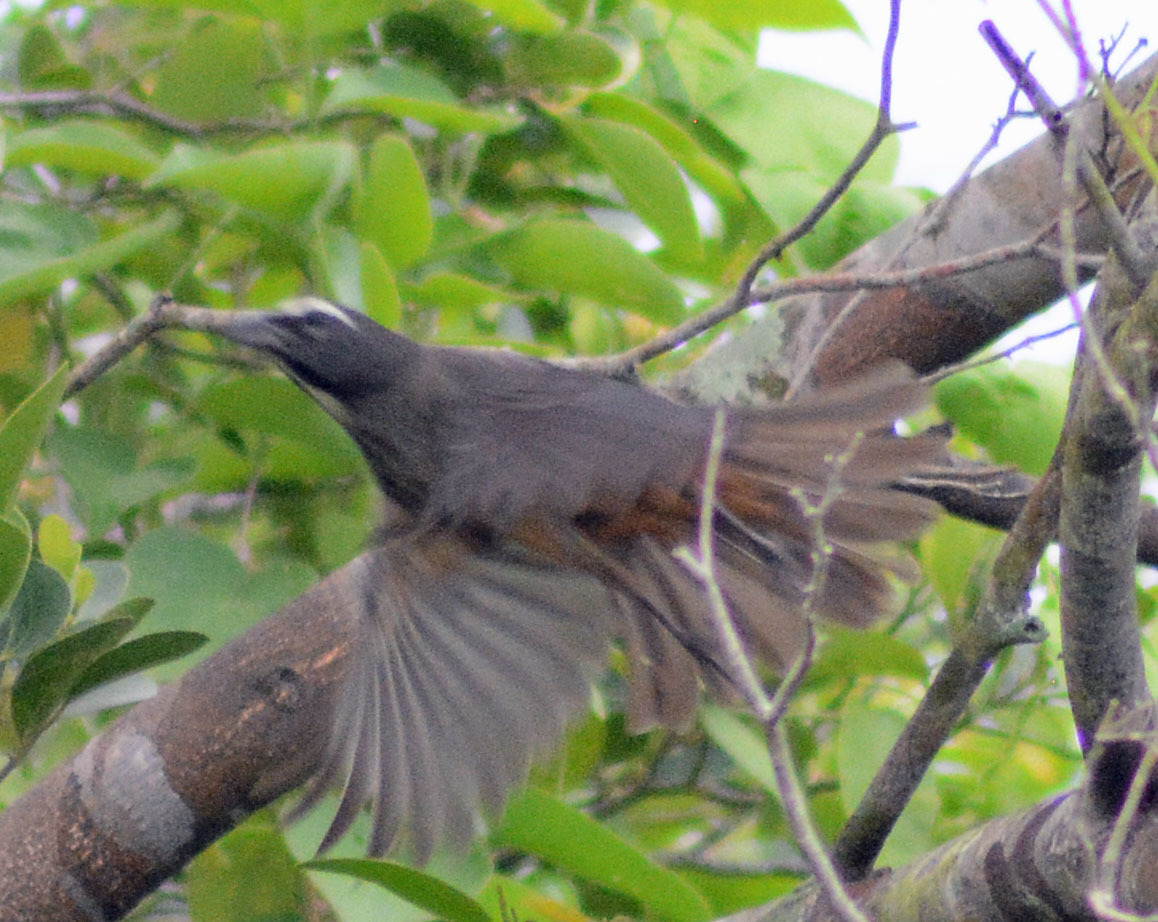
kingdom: Animalia
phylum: Chordata
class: Aves
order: Passeriformes
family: Thraupidae
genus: Saltator
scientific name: Saltator grandis
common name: Cinnamon-bellied saltator
